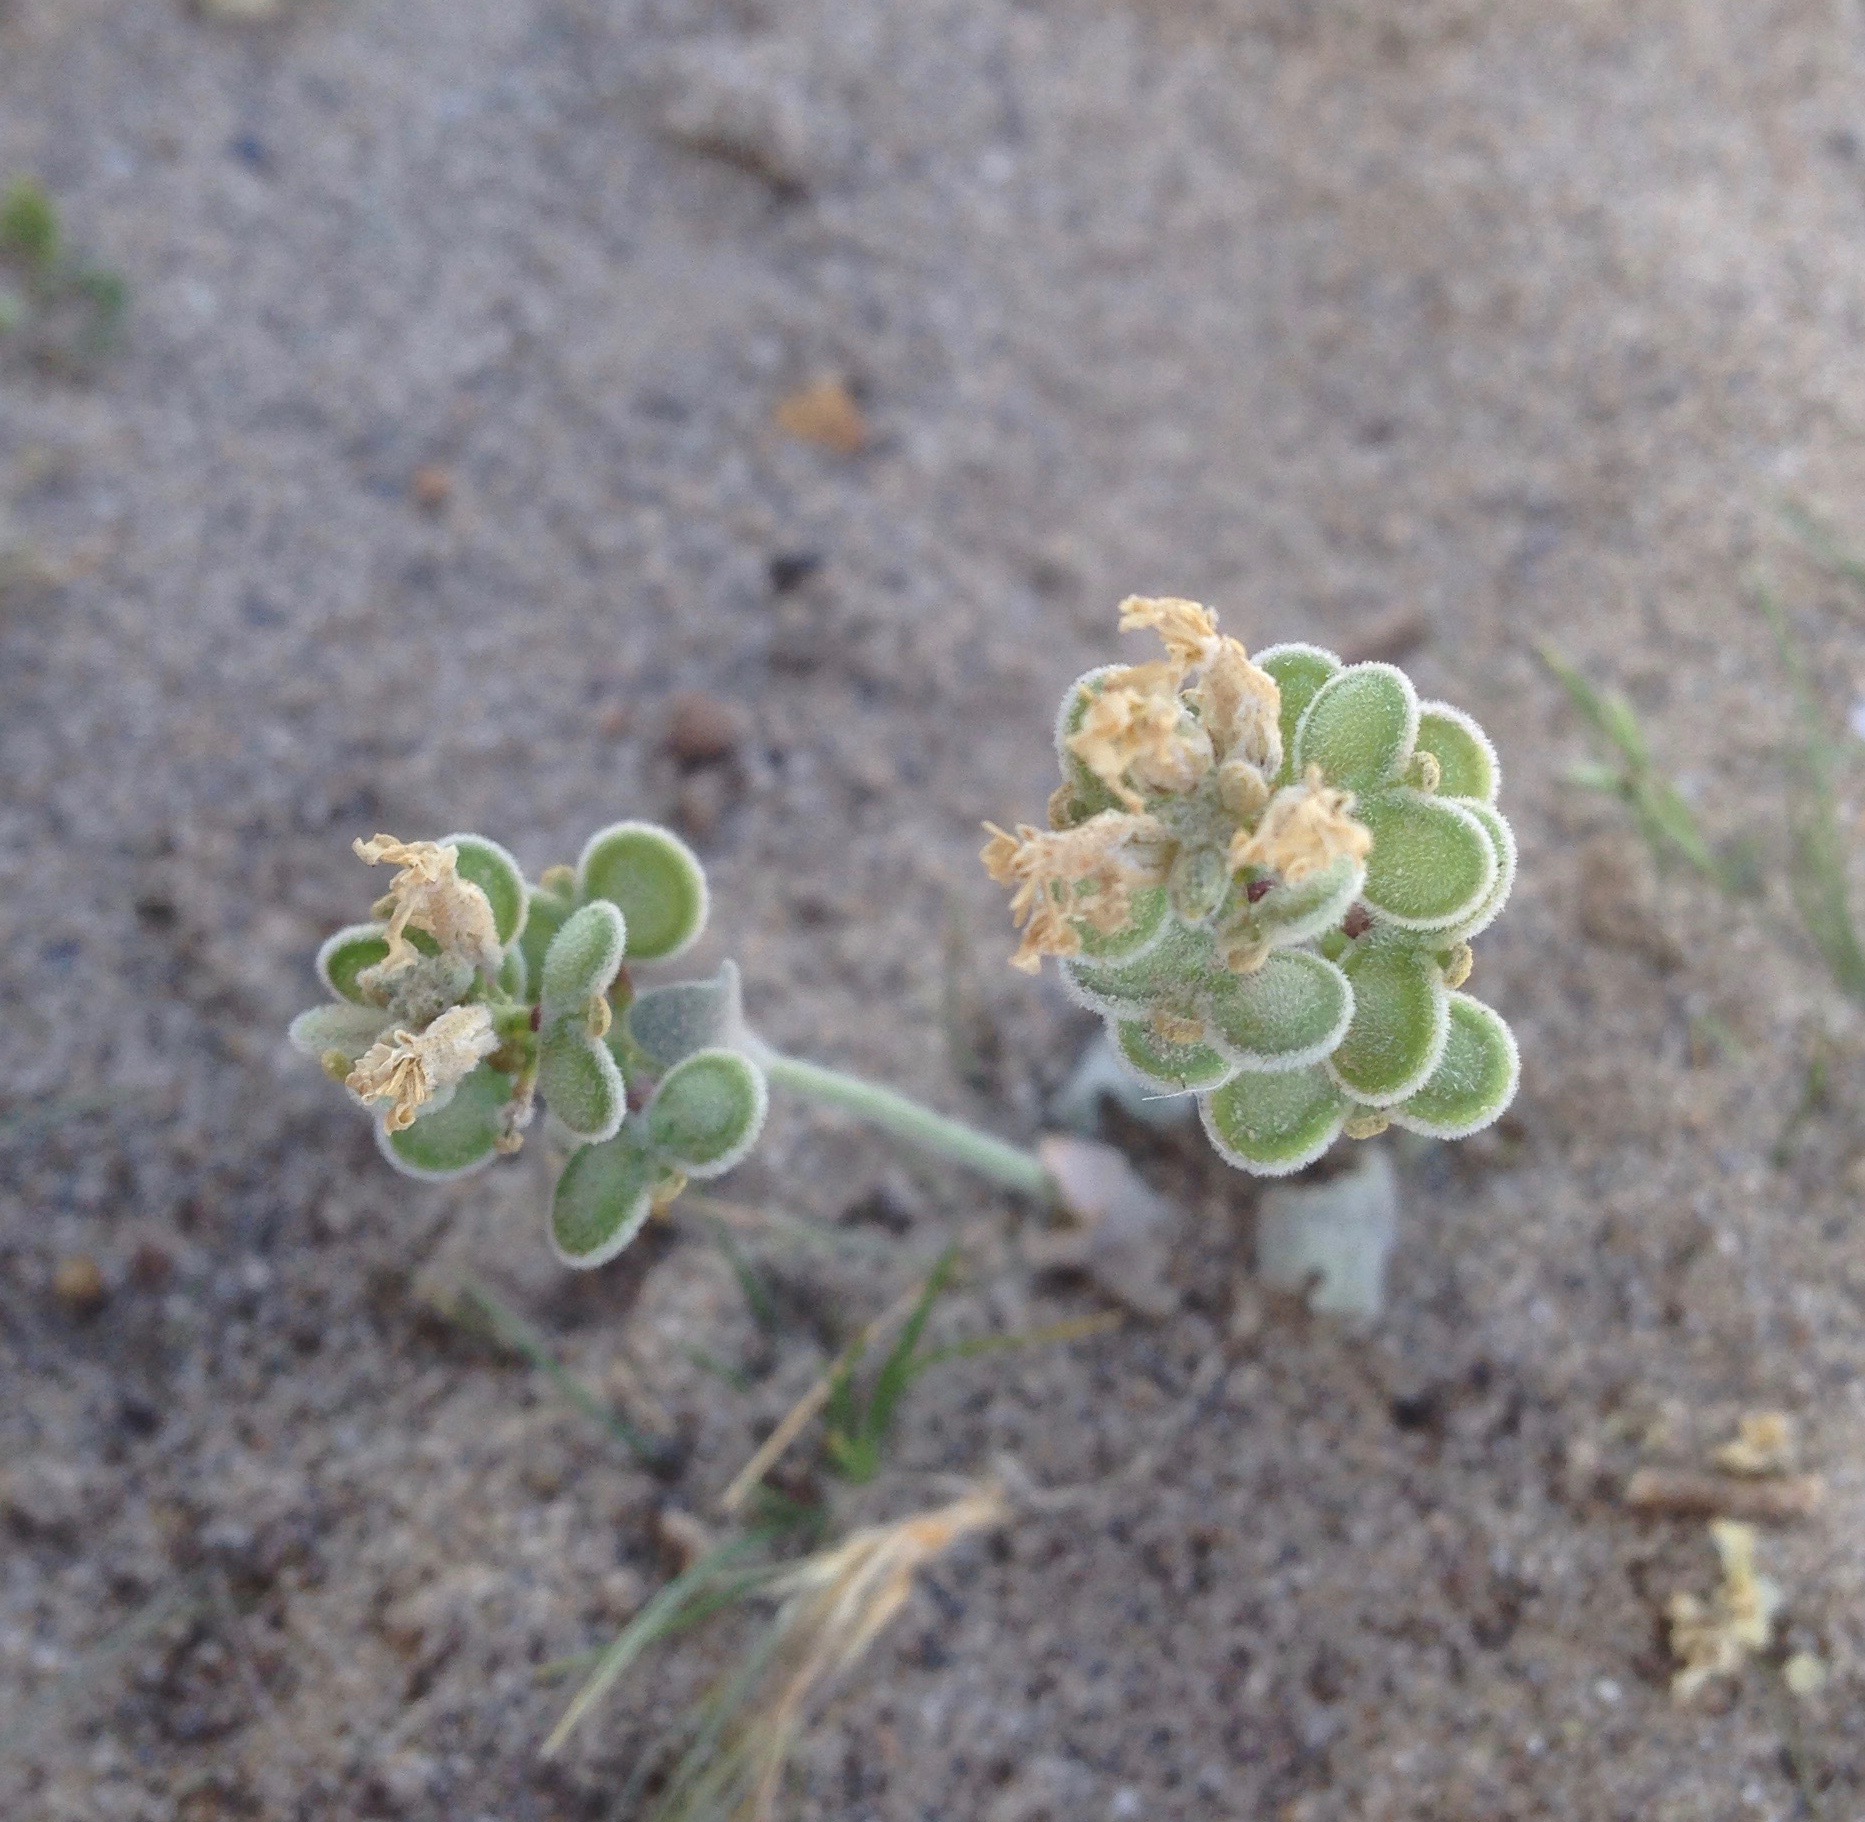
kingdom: Plantae
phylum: Tracheophyta
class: Magnoliopsida
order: Brassicales
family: Brassicaceae
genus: Dithyrea
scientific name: Dithyrea californica
